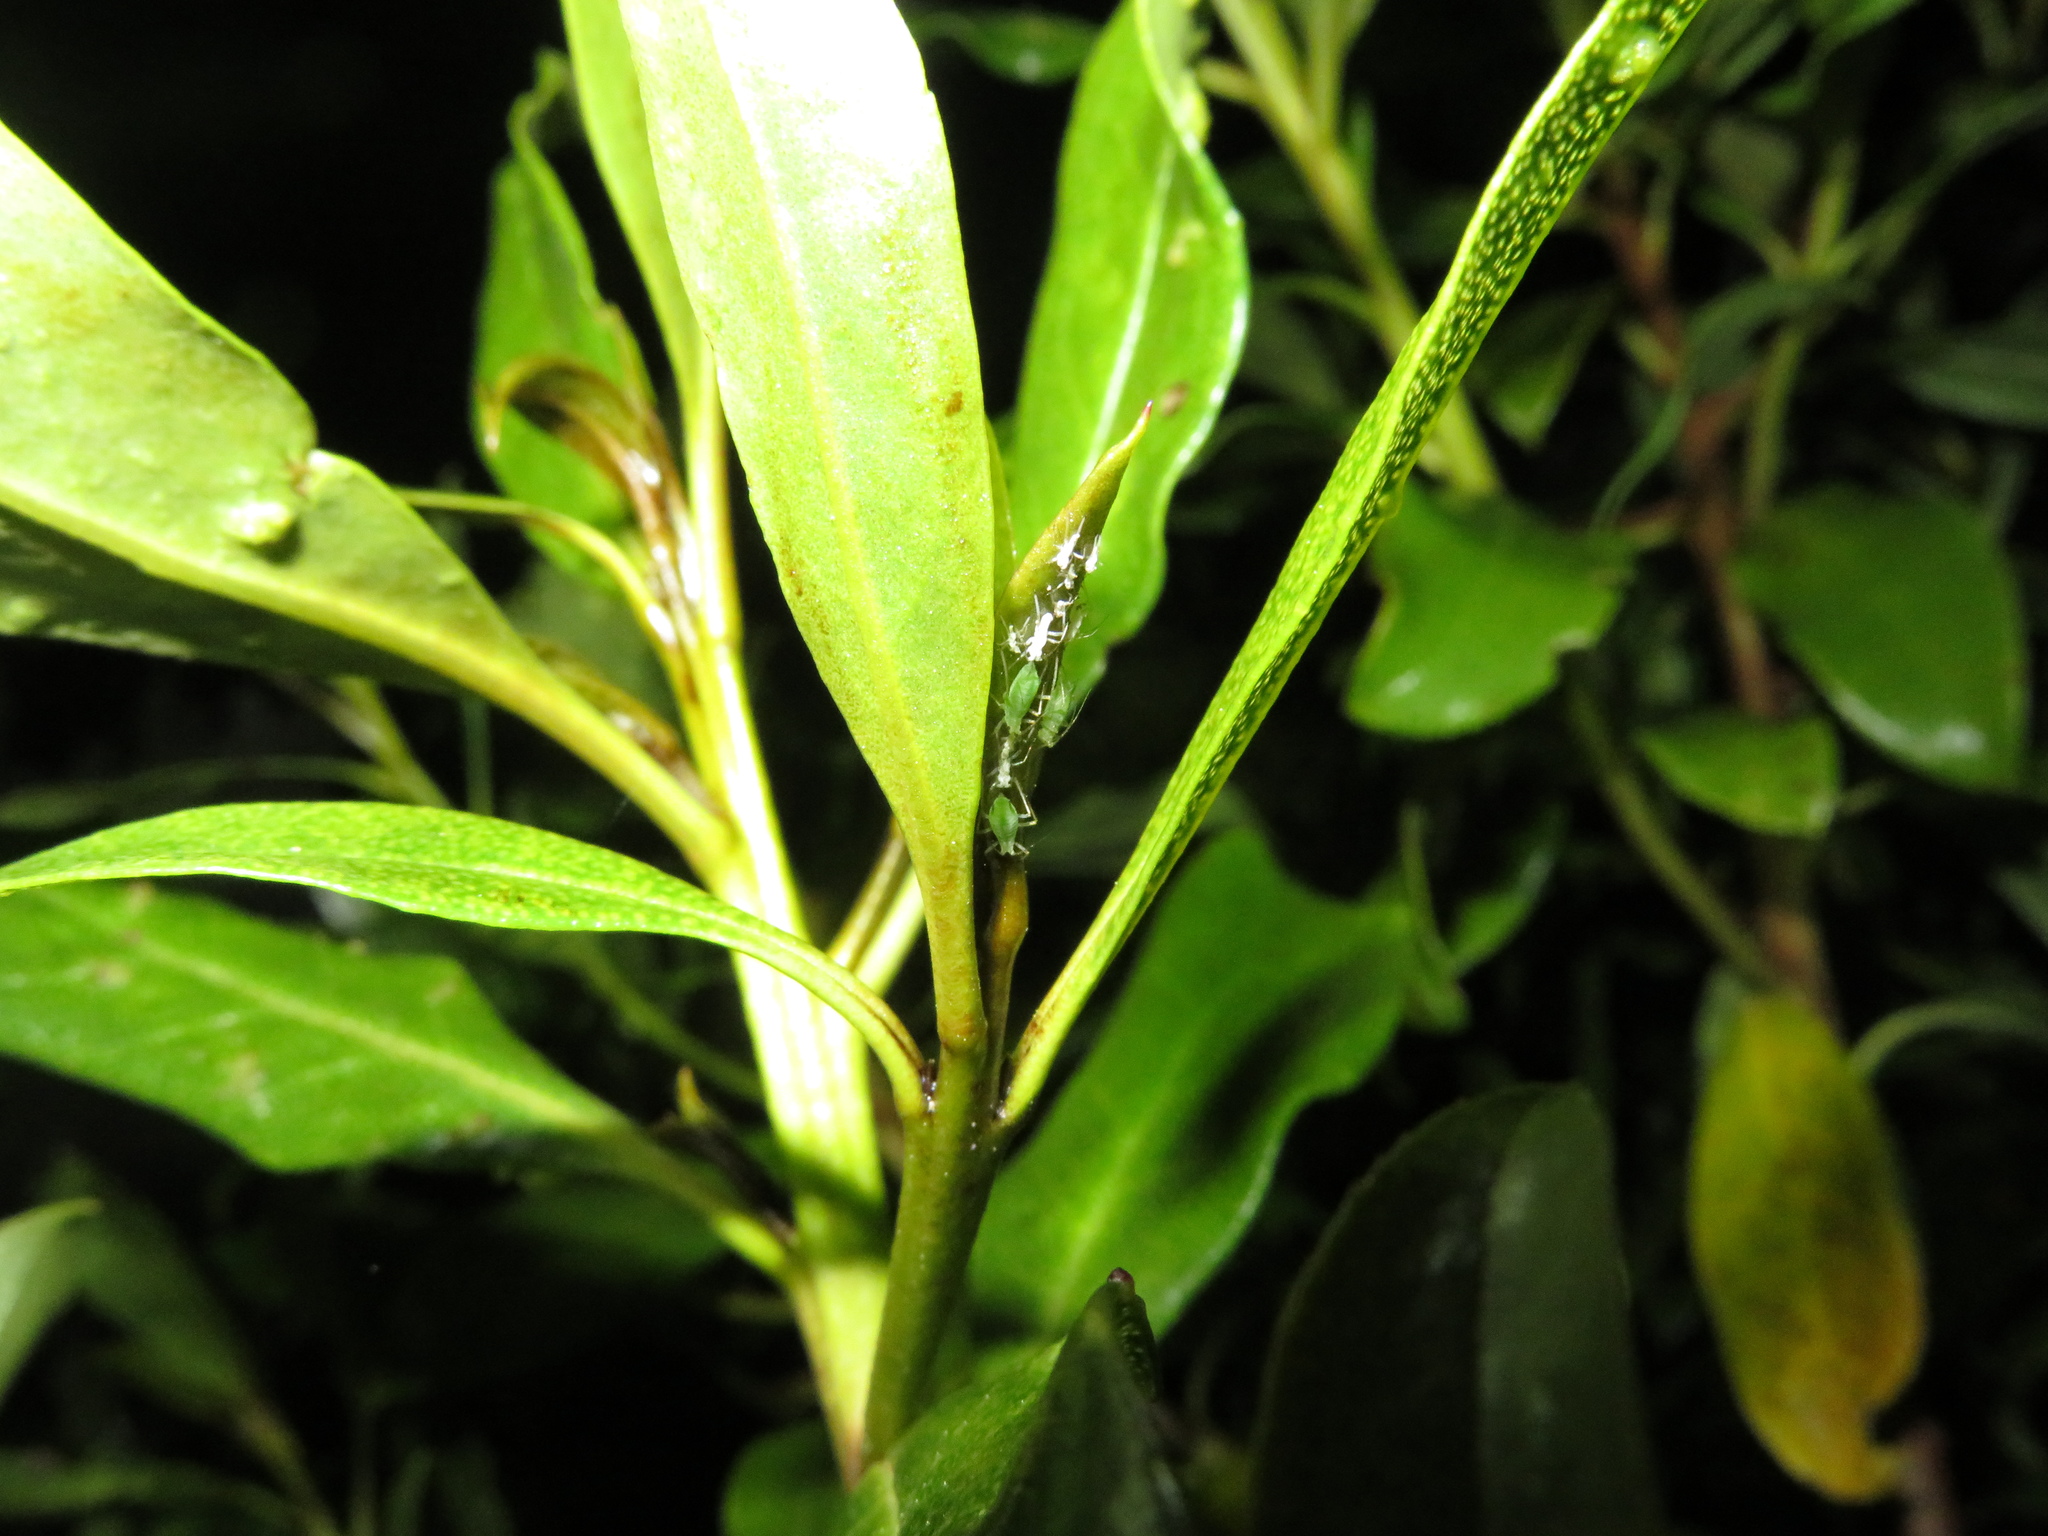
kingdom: Animalia
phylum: Arthropoda
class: Insecta
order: Hemiptera
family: Aphididae
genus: Macrosiphum
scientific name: Macrosiphum euphorbiae
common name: Potato aphid
